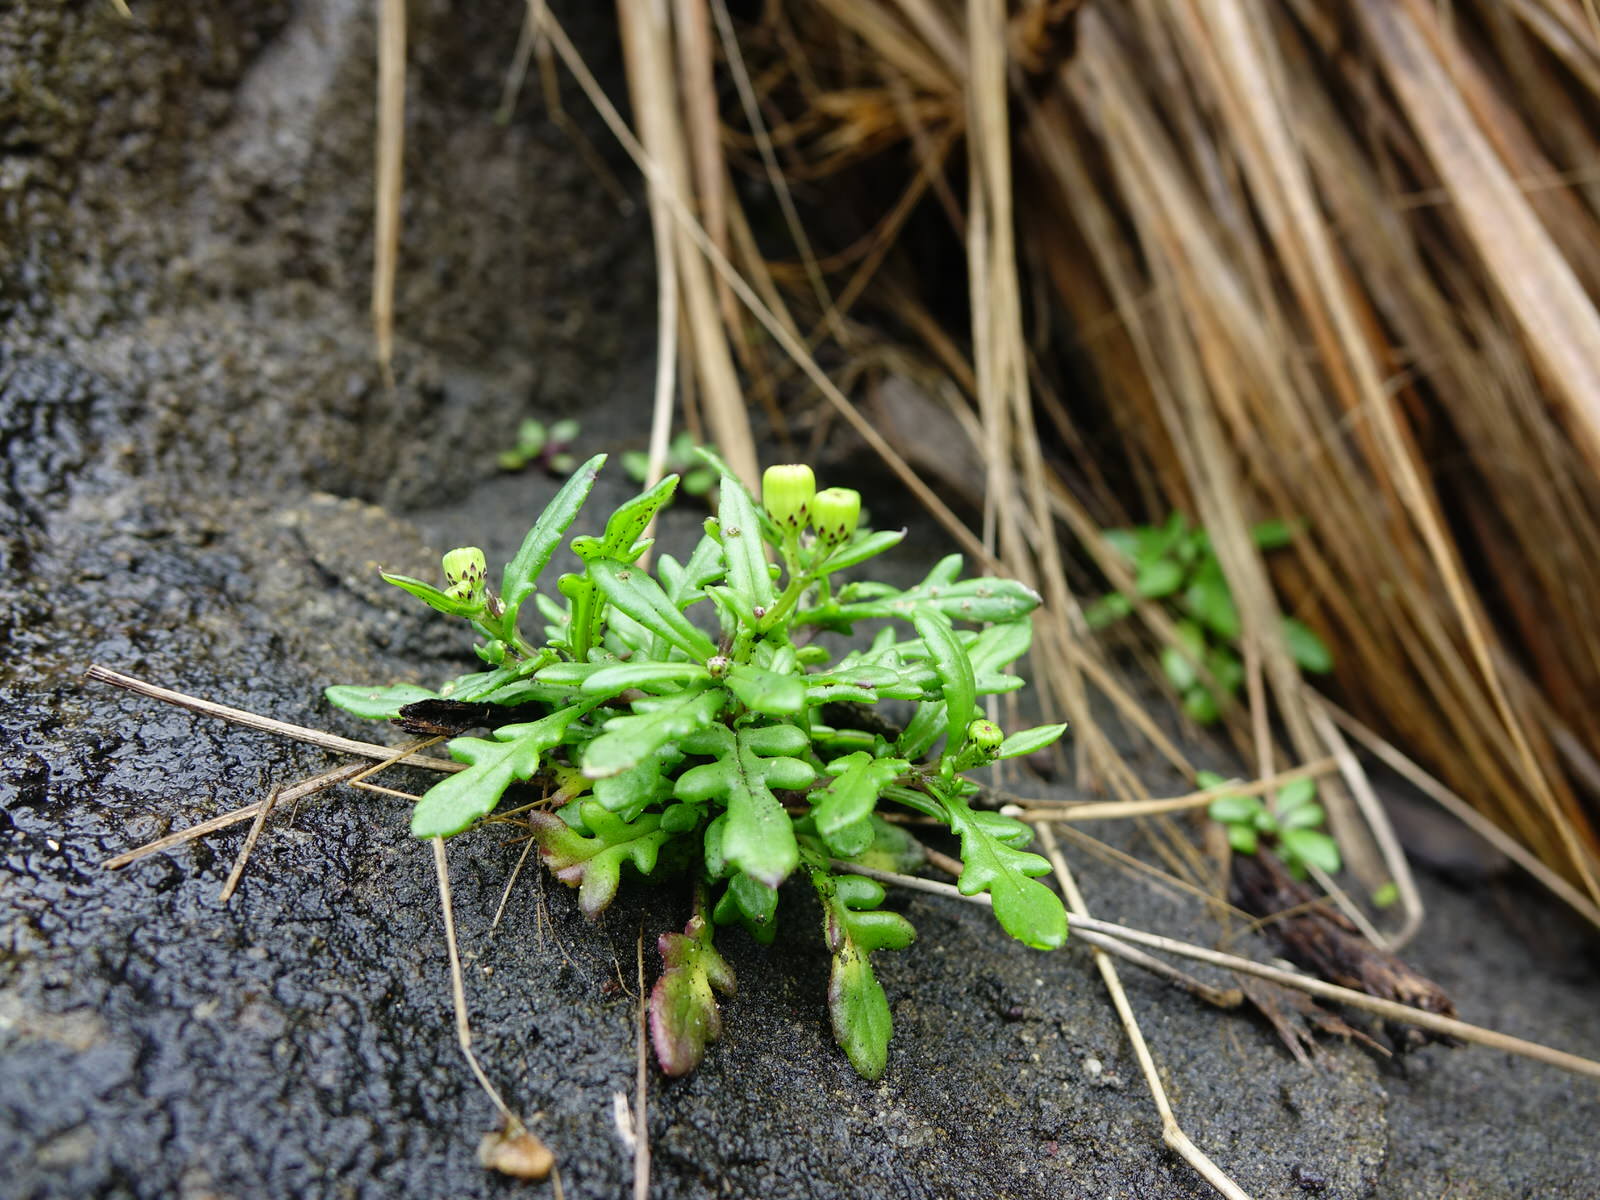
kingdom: Plantae
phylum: Tracheophyta
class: Magnoliopsida
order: Asterales
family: Asteraceae
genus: Senecio
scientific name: Senecio lautus
